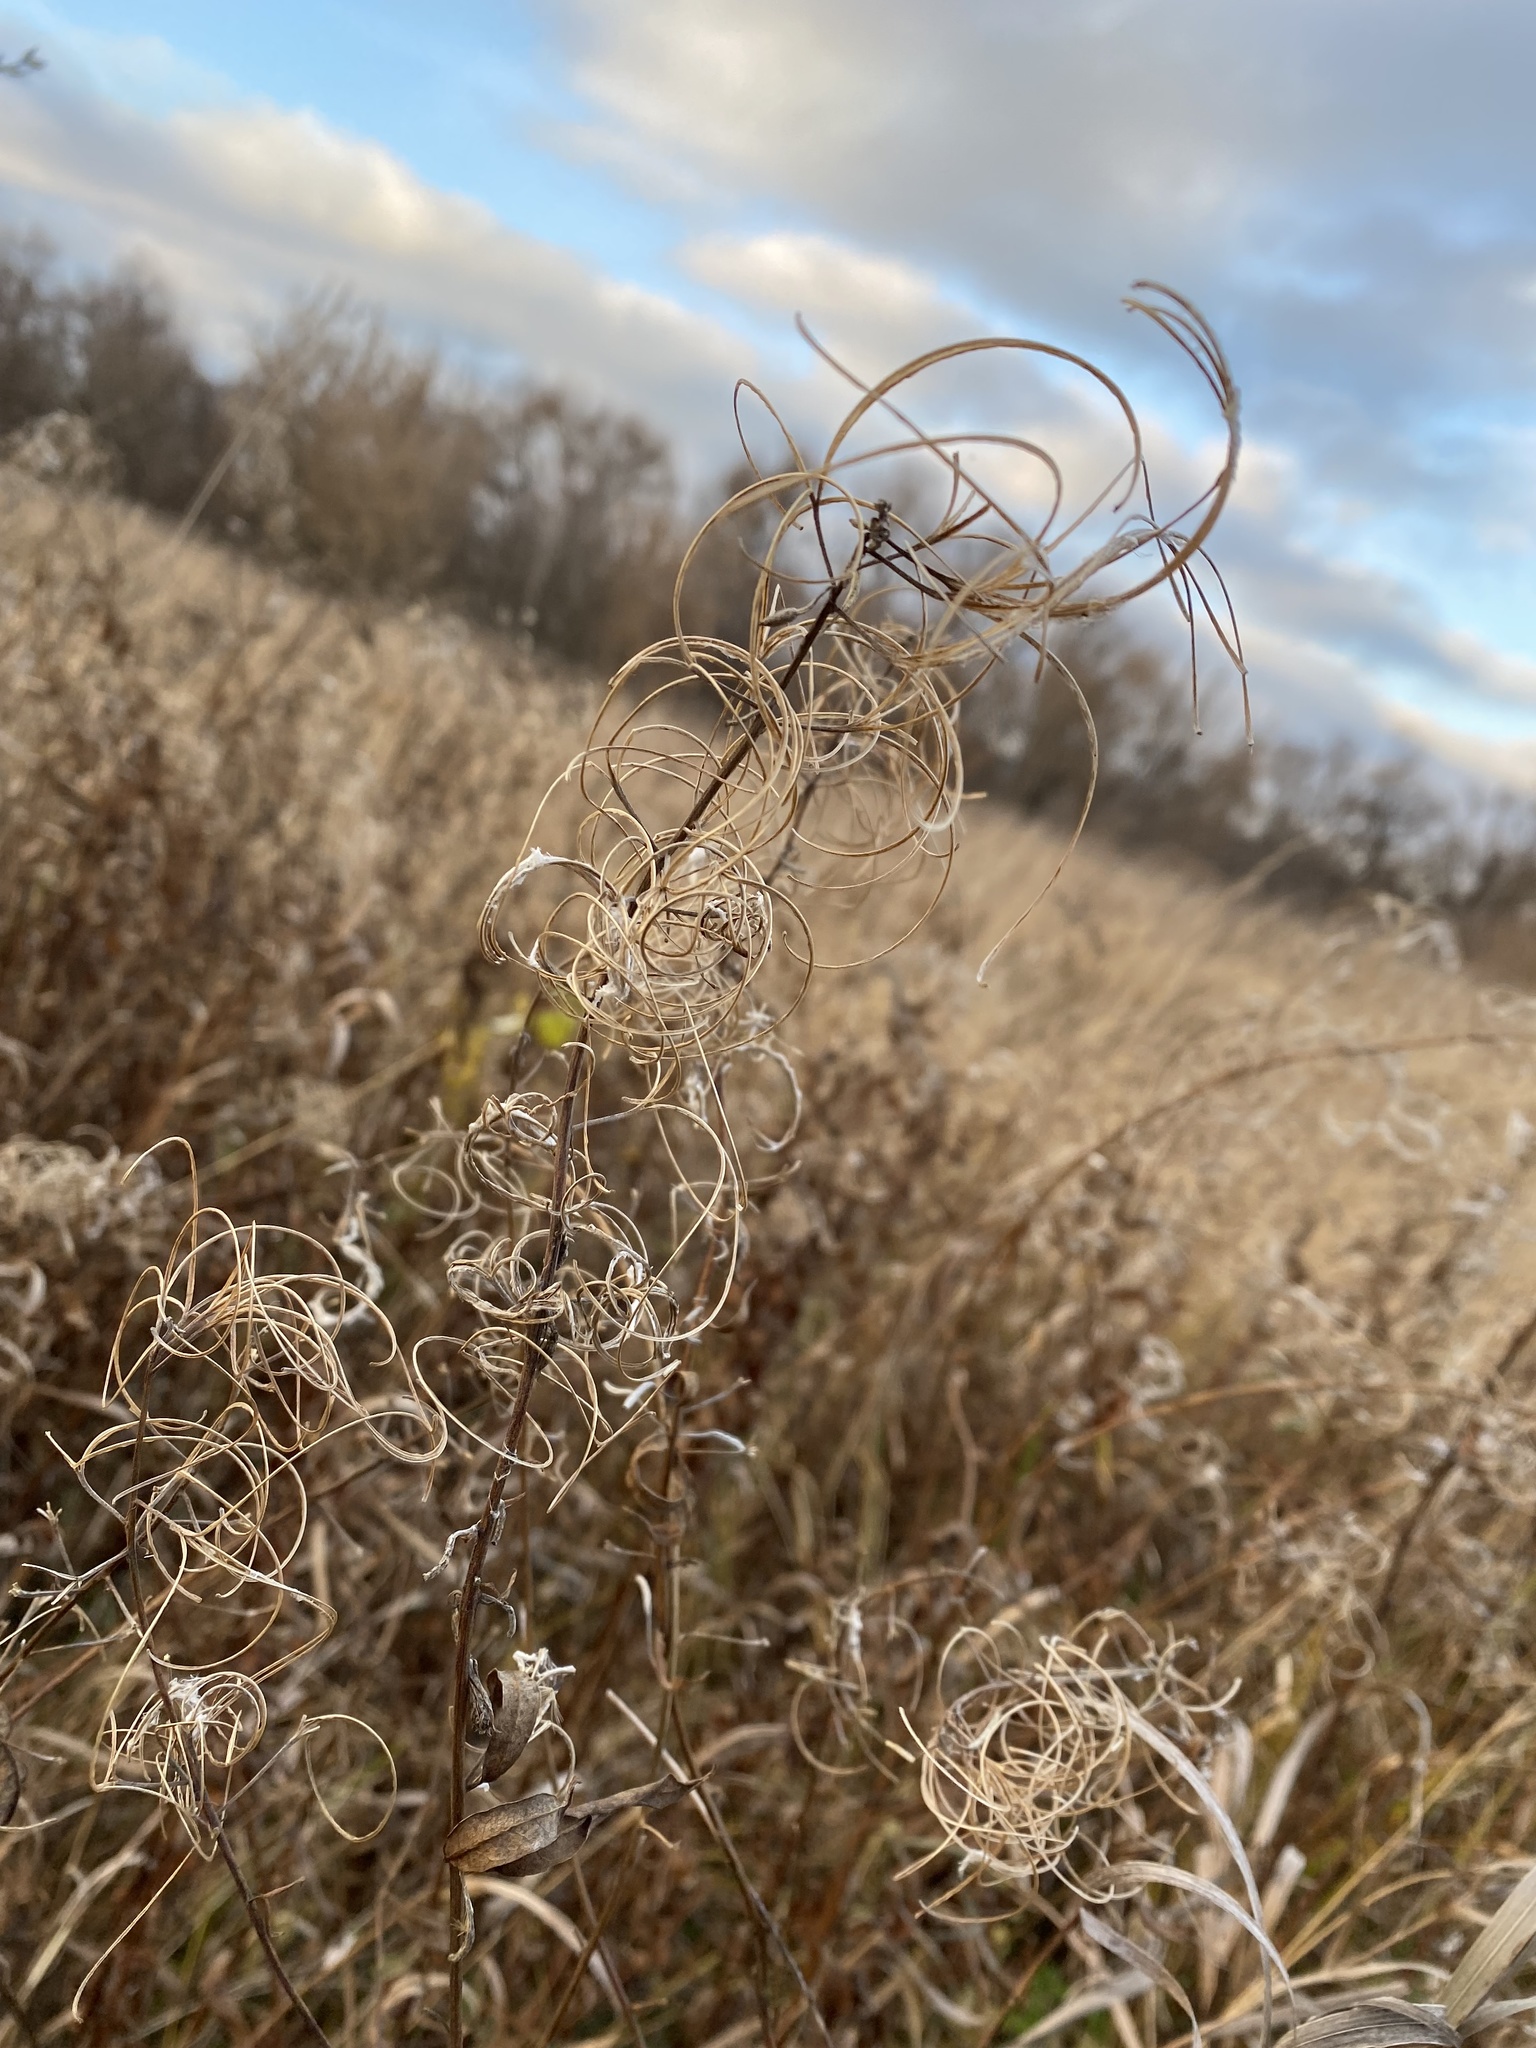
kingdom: Plantae
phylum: Tracheophyta
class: Magnoliopsida
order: Myrtales
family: Onagraceae
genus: Chamaenerion
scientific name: Chamaenerion angustifolium
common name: Fireweed
